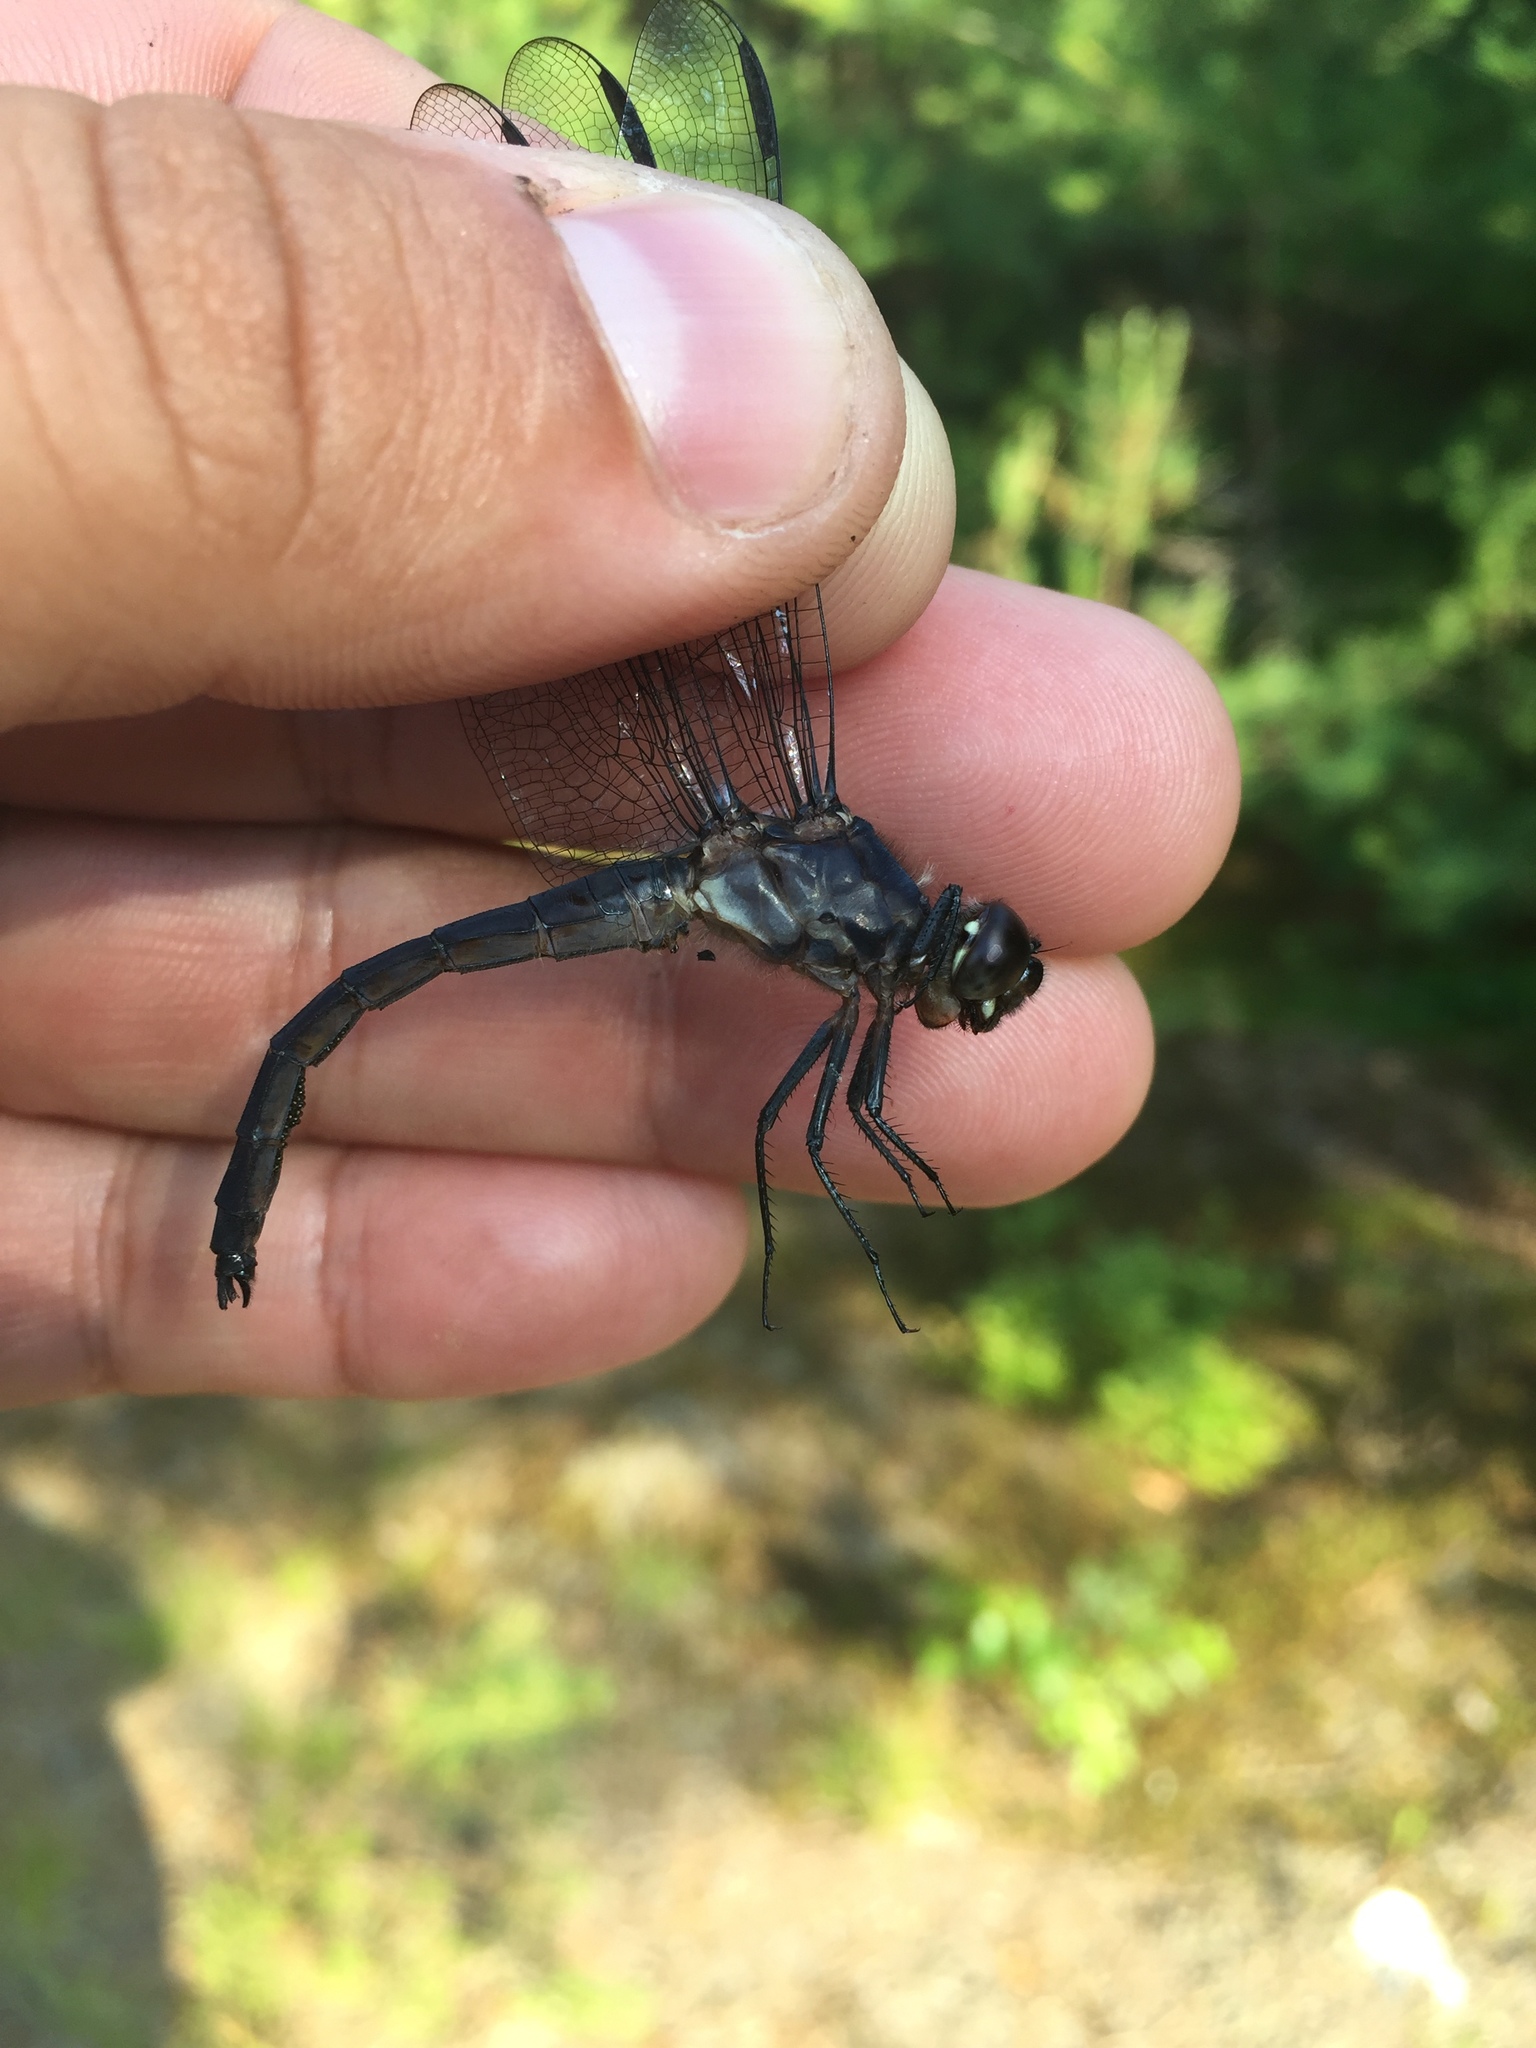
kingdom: Animalia
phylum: Arthropoda
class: Insecta
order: Odonata
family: Libellulidae
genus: Libellula
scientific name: Libellula incesta
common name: Slaty skimmer
